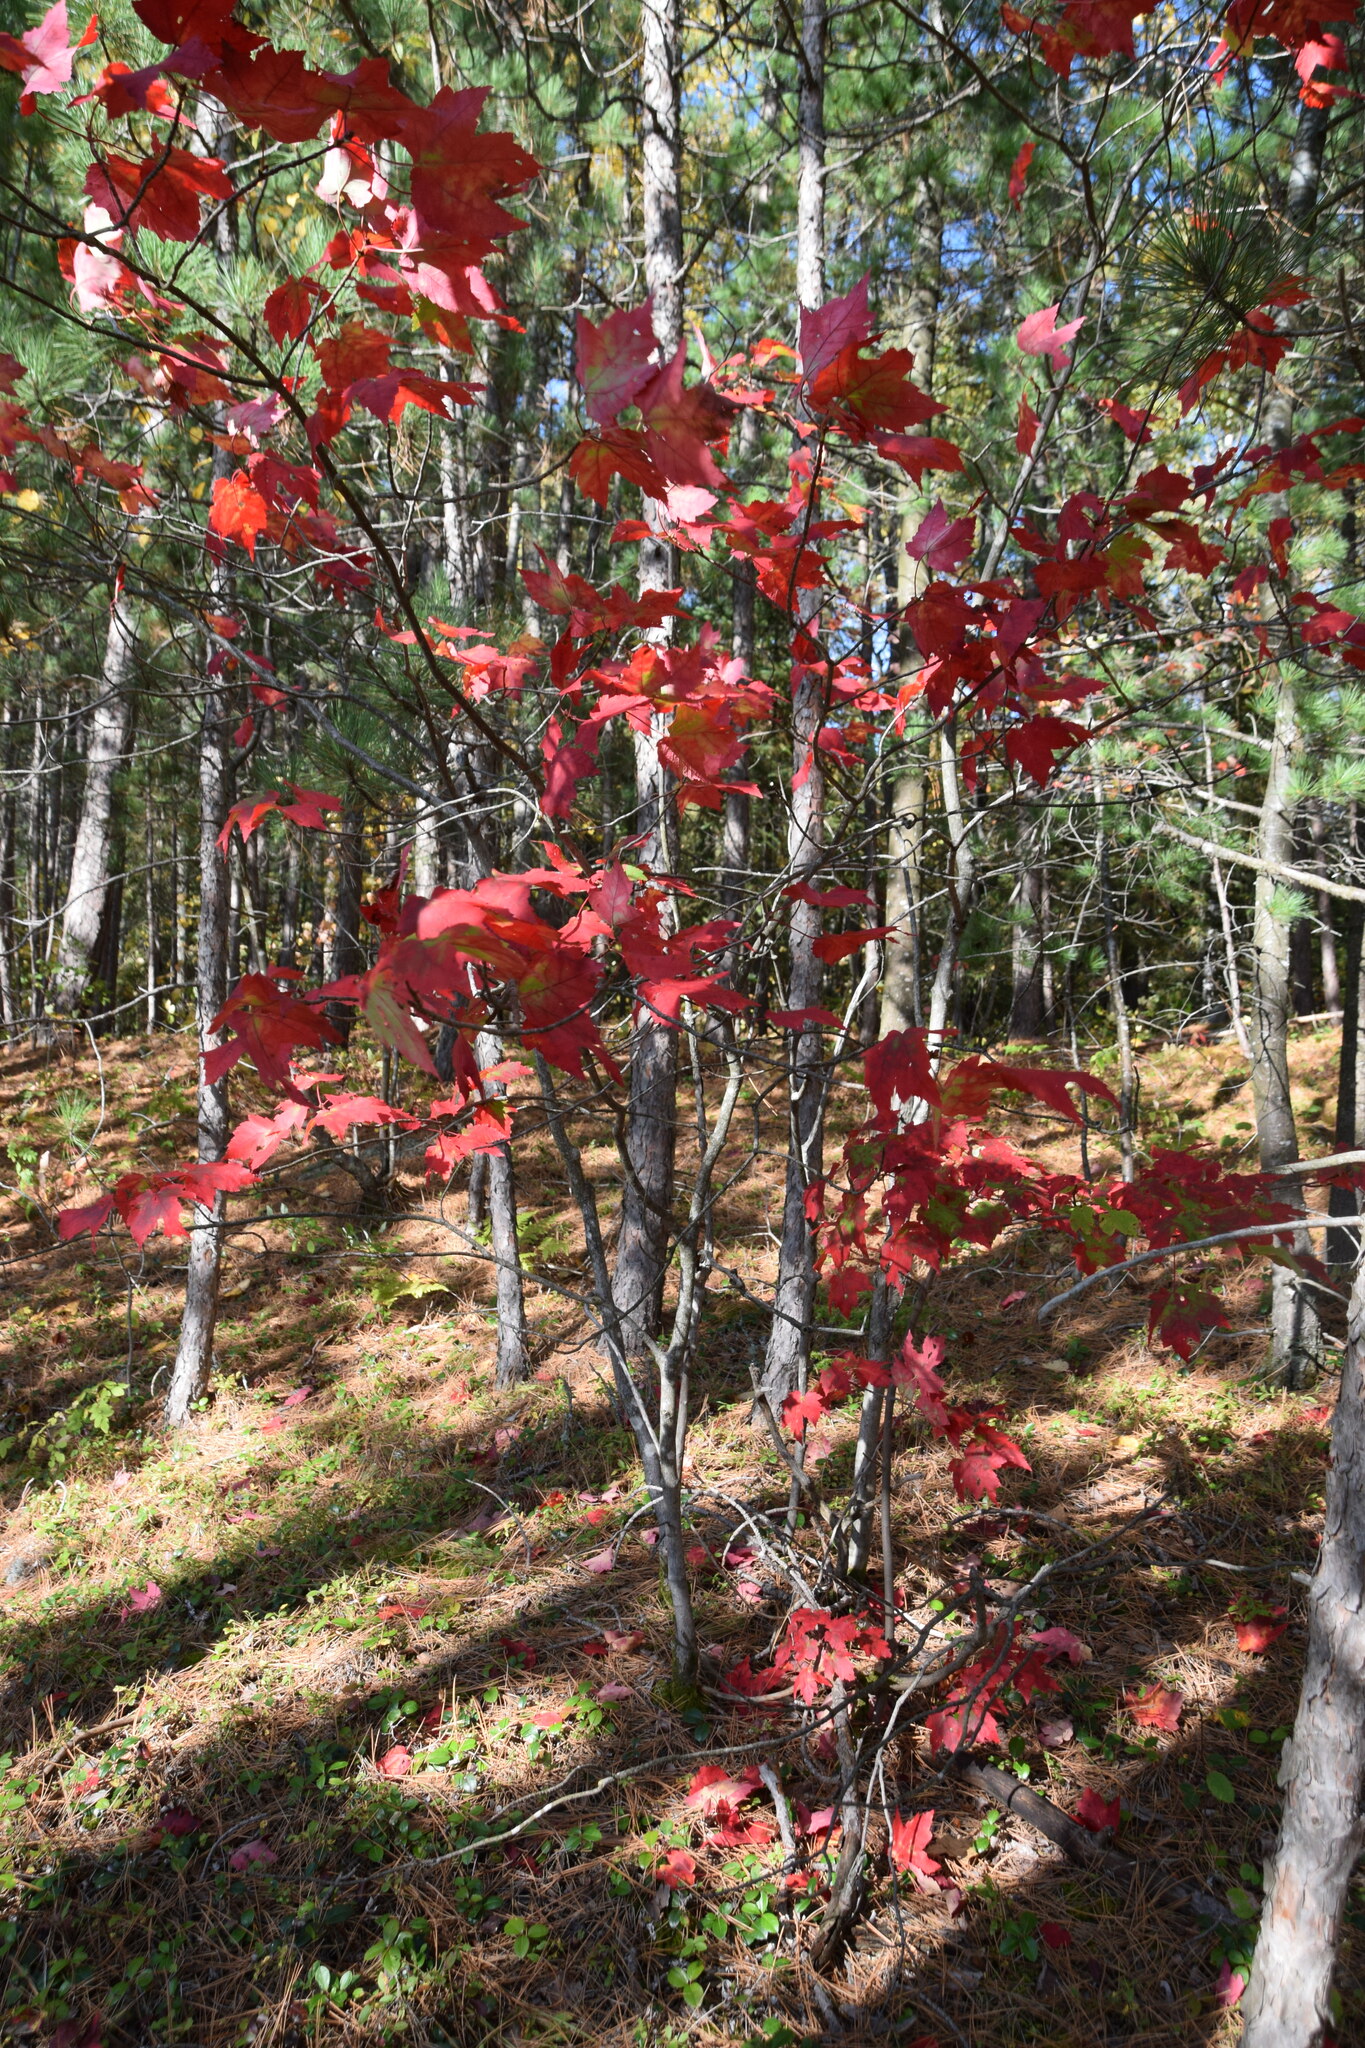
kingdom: Plantae
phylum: Tracheophyta
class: Magnoliopsida
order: Fagales
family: Fagaceae
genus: Quercus
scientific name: Quercus rubra
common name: Red oak
